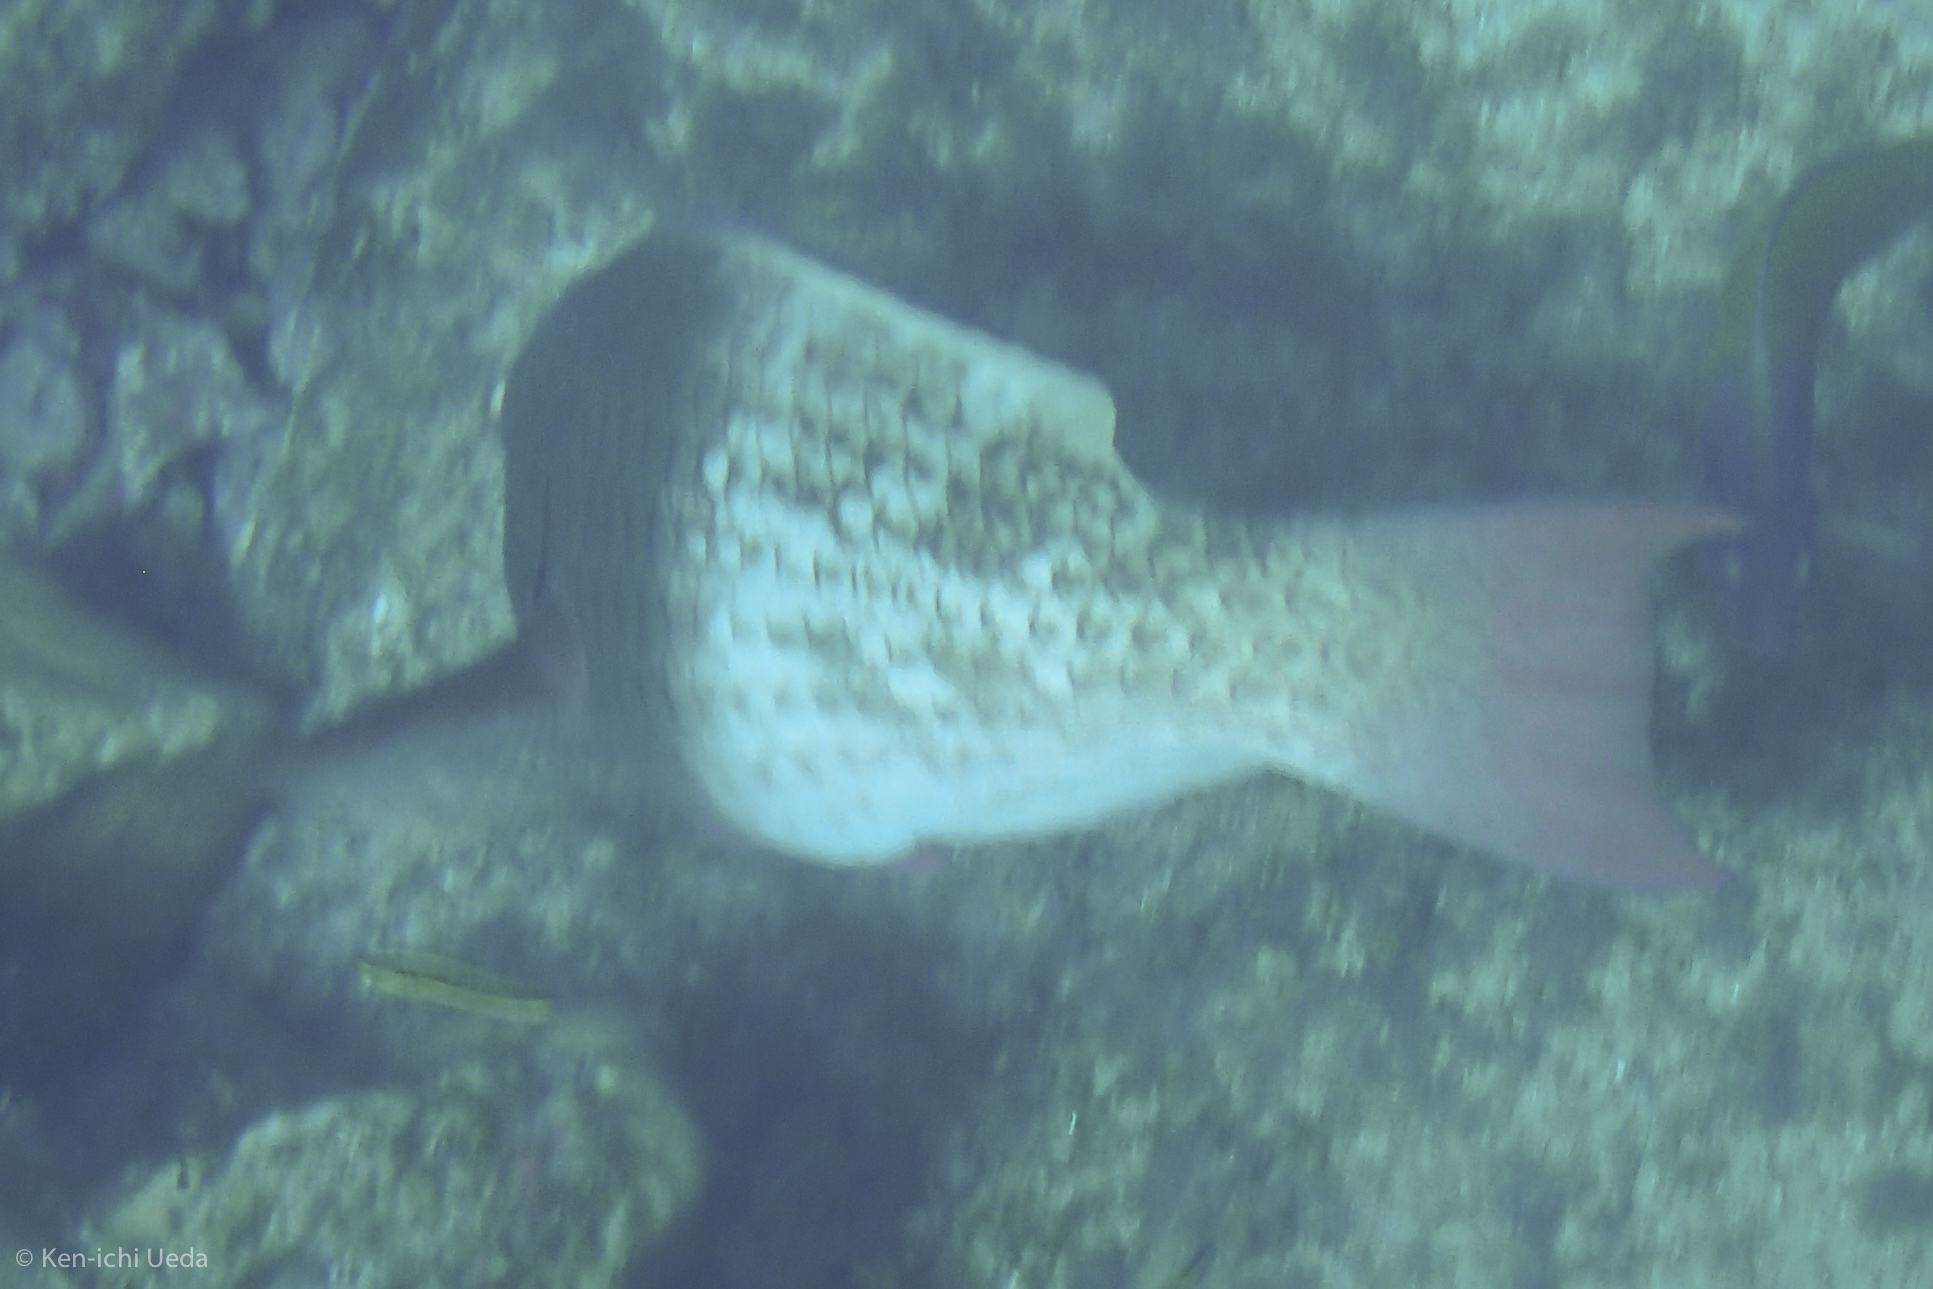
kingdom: Animalia
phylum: Chordata
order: Perciformes
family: Scaridae
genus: Scarus
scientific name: Scarus rubroviolaceus
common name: Ember parrotfish
